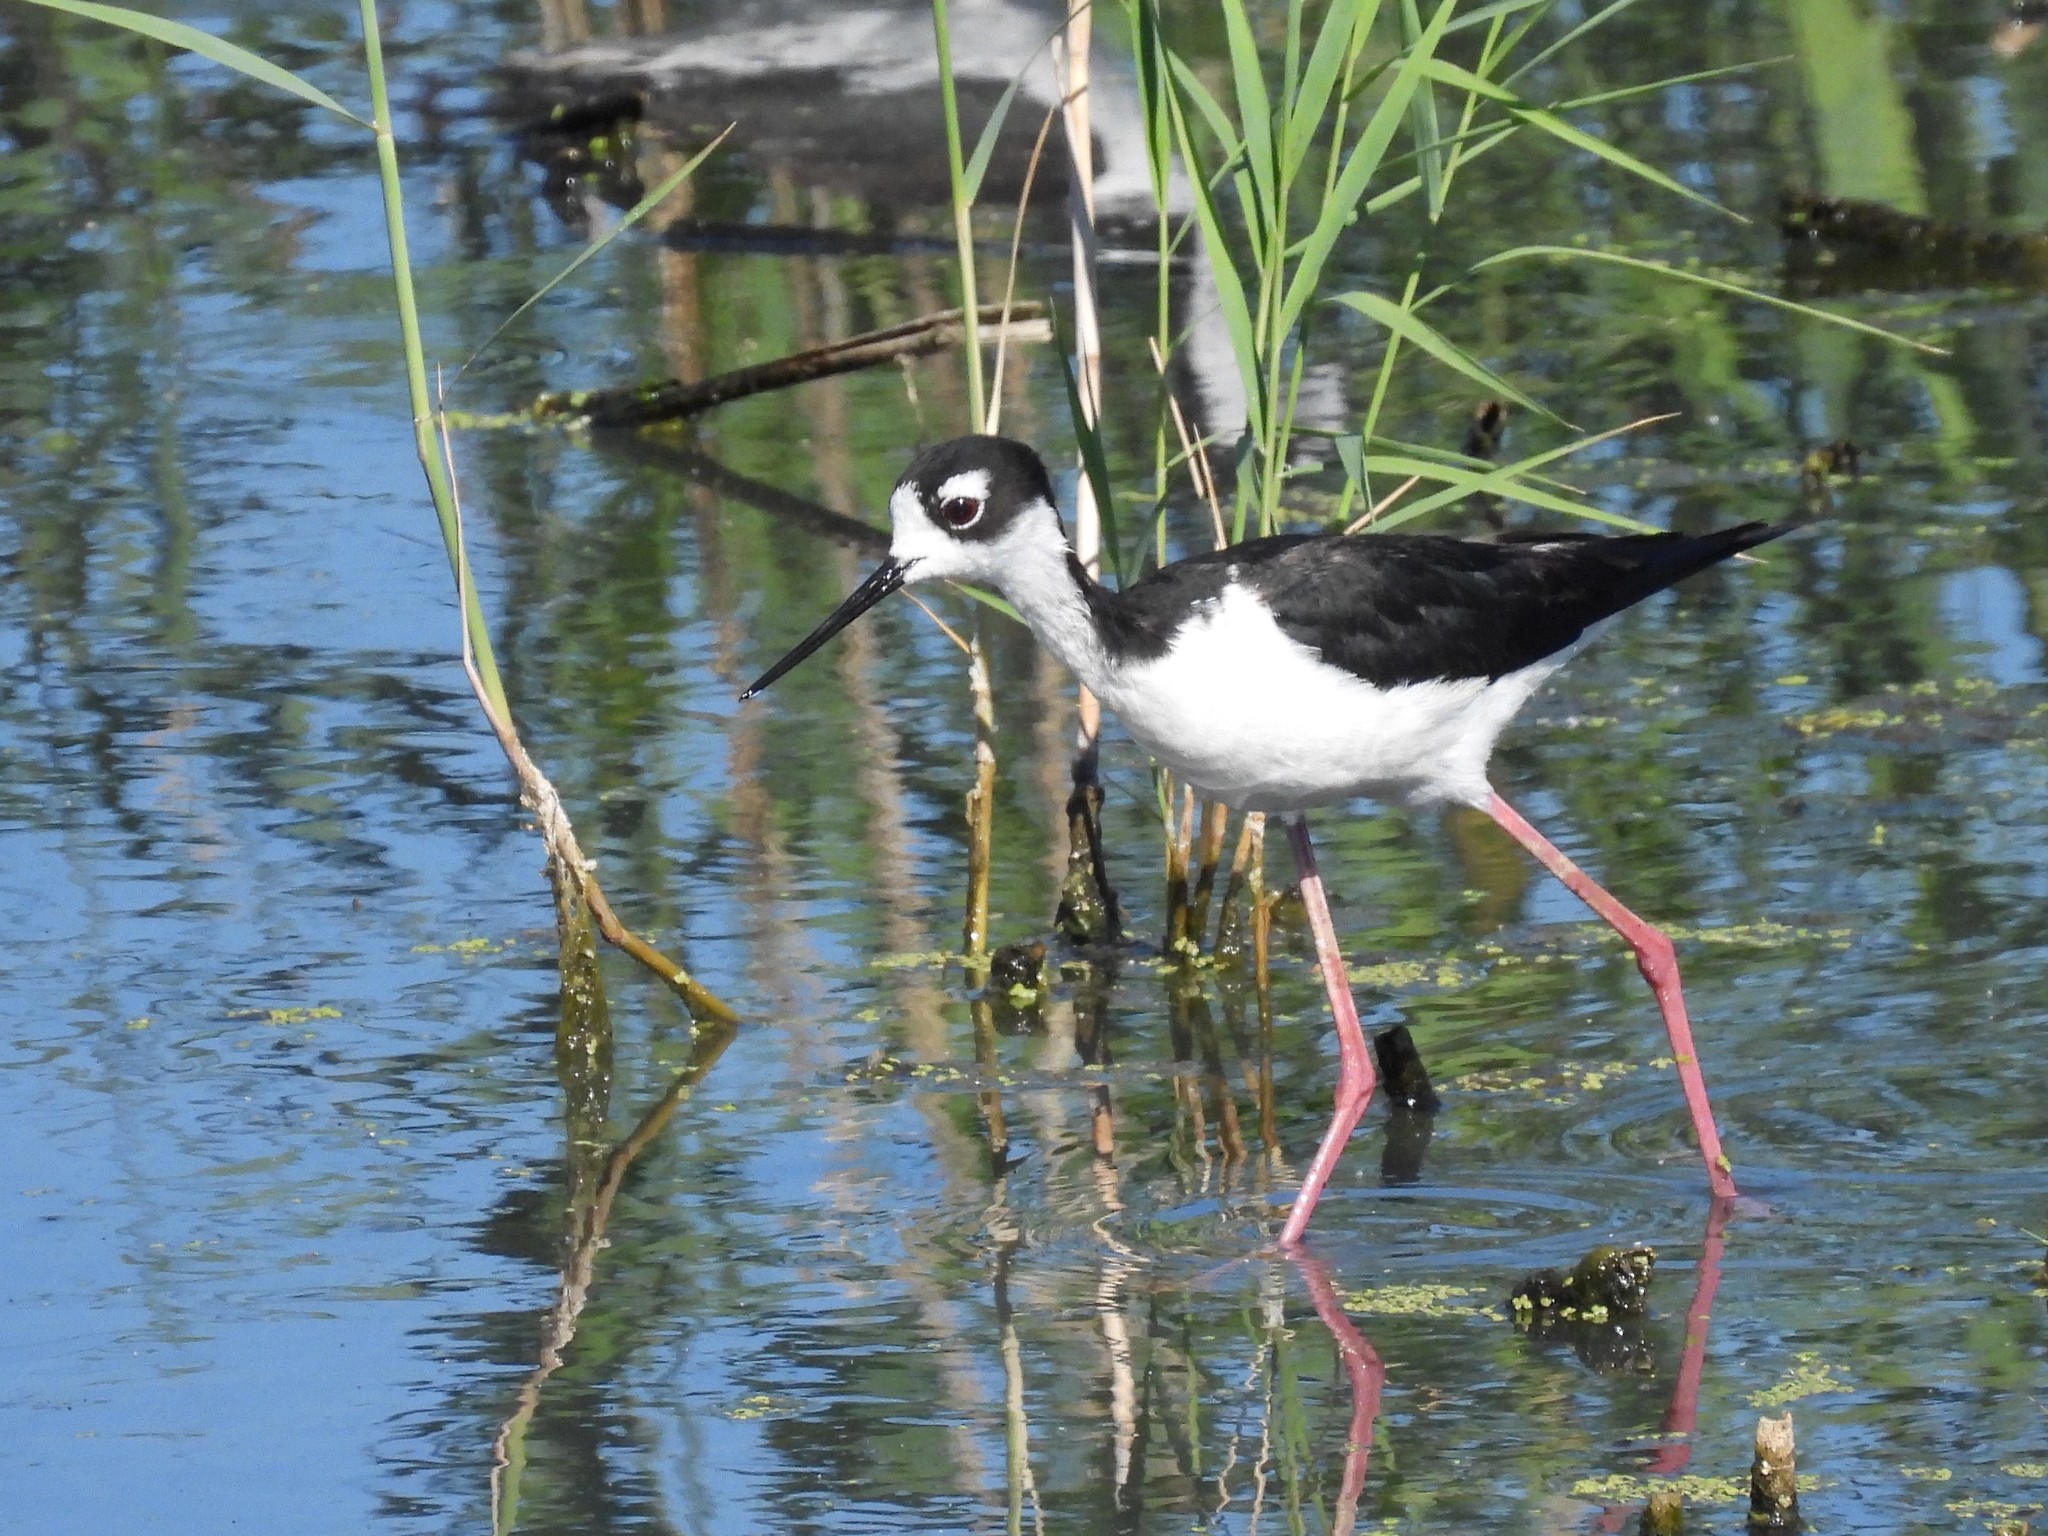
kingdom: Animalia
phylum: Chordata
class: Aves
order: Charadriiformes
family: Recurvirostridae
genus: Himantopus
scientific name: Himantopus mexicanus
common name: Black-necked stilt
